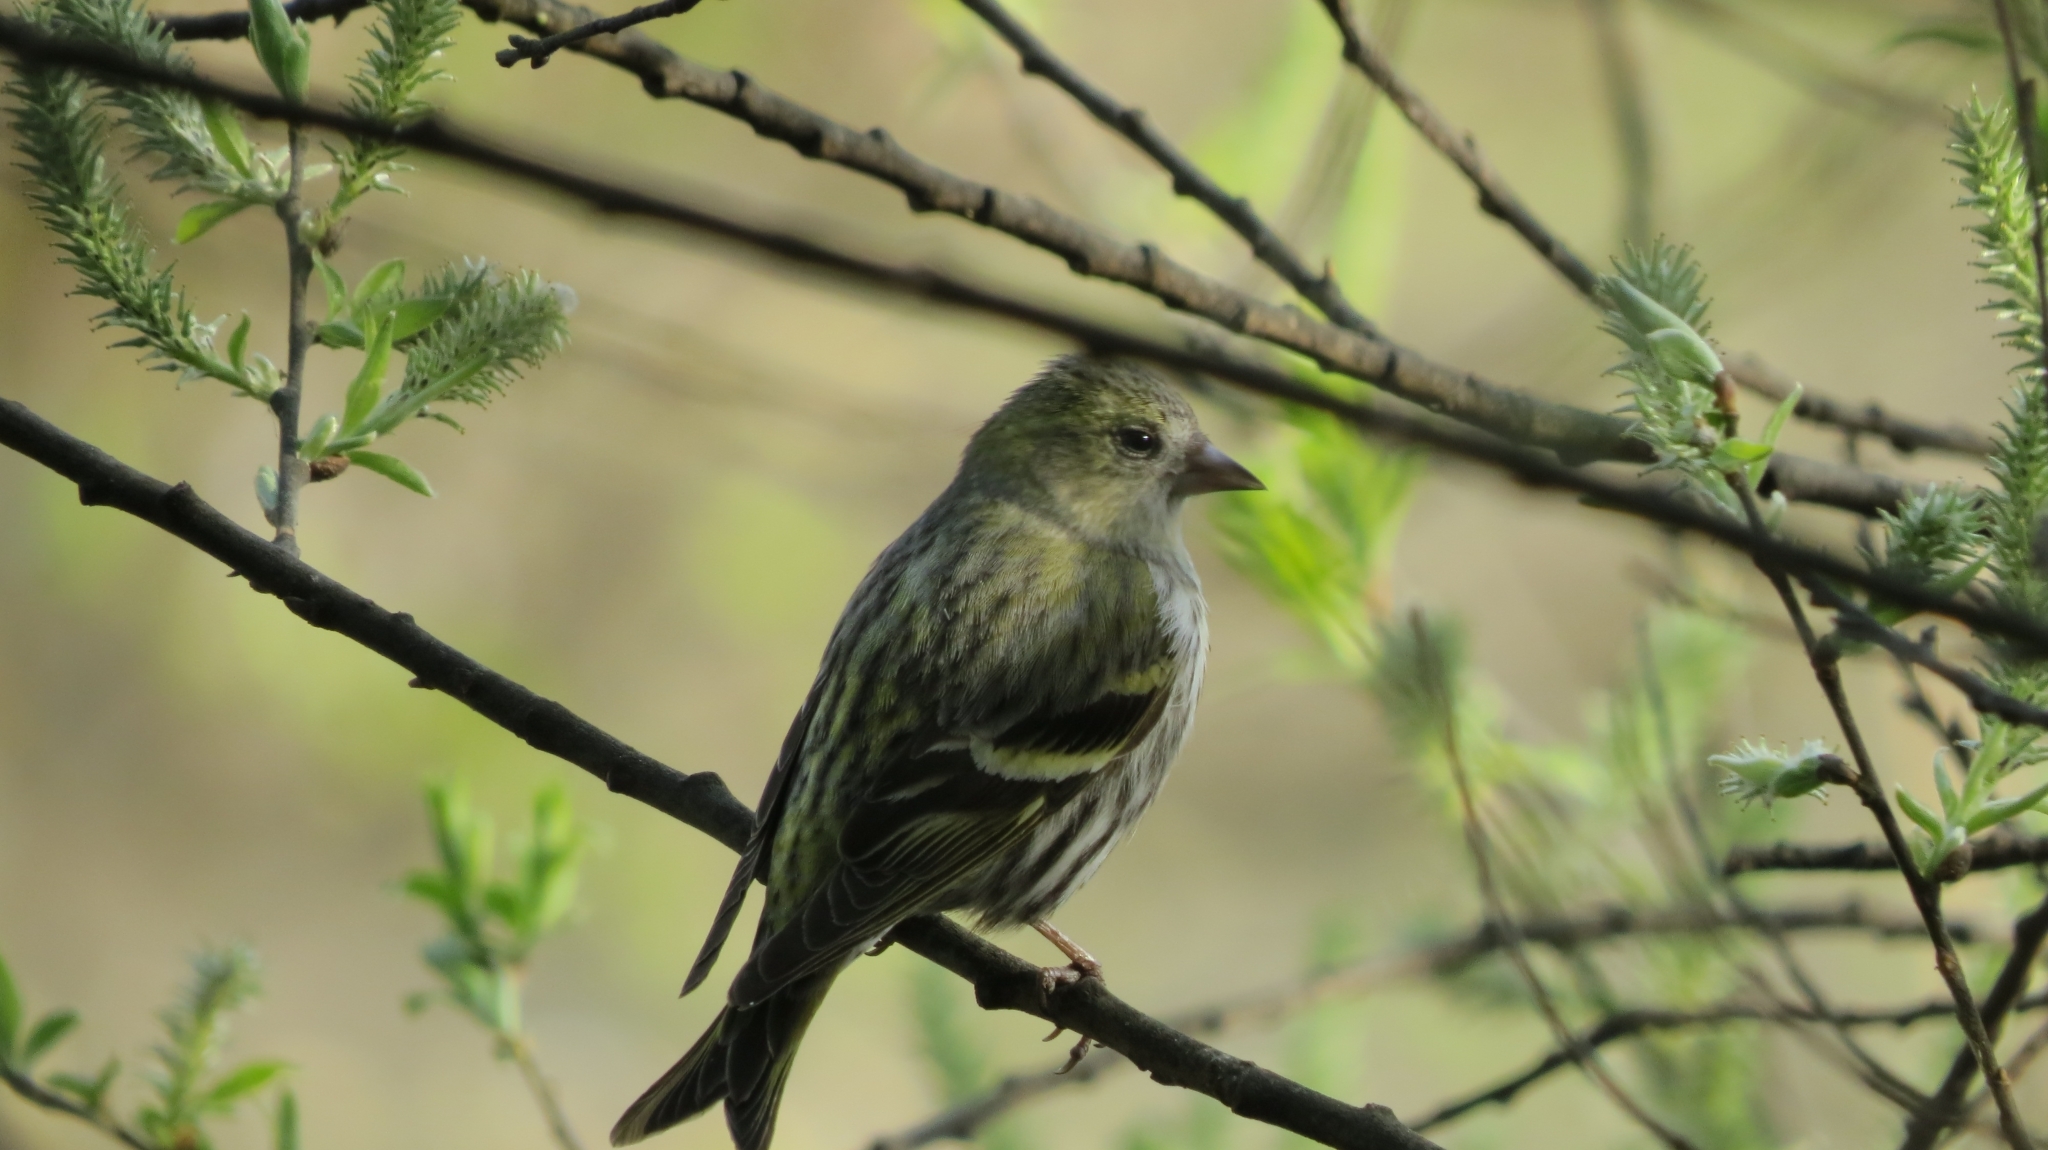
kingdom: Animalia
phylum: Chordata
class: Aves
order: Passeriformes
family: Fringillidae
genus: Spinus
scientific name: Spinus spinus
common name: Eurasian siskin
